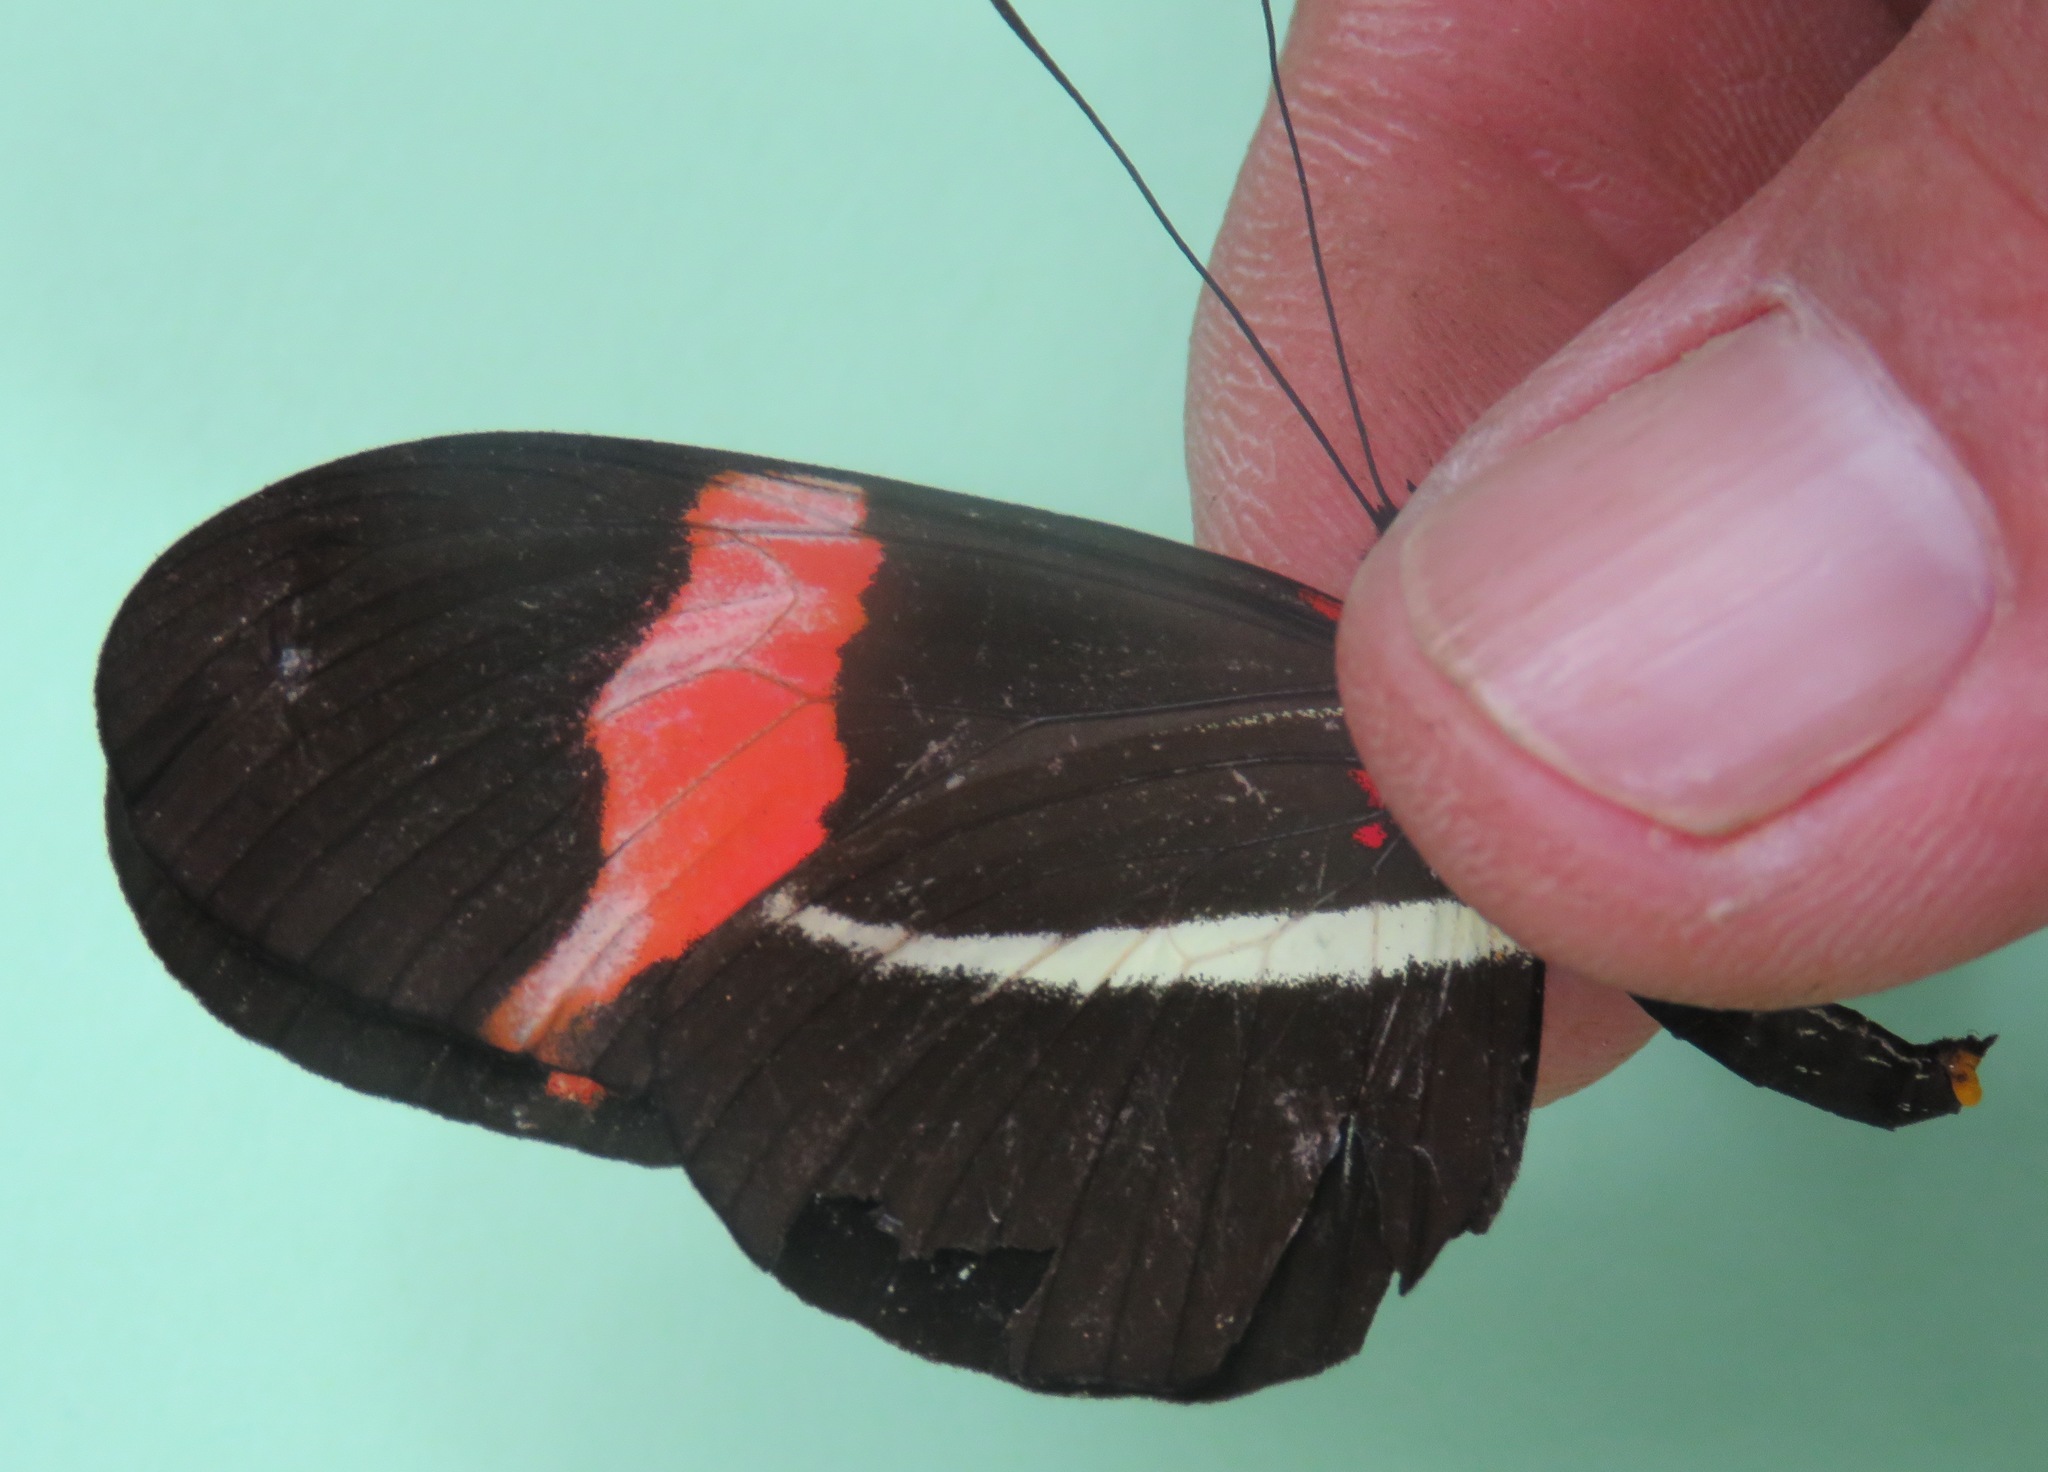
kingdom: Animalia
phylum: Arthropoda
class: Insecta
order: Lepidoptera
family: Nymphalidae
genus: Tirumala
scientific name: Tirumala petiverana
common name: Blue monarch
